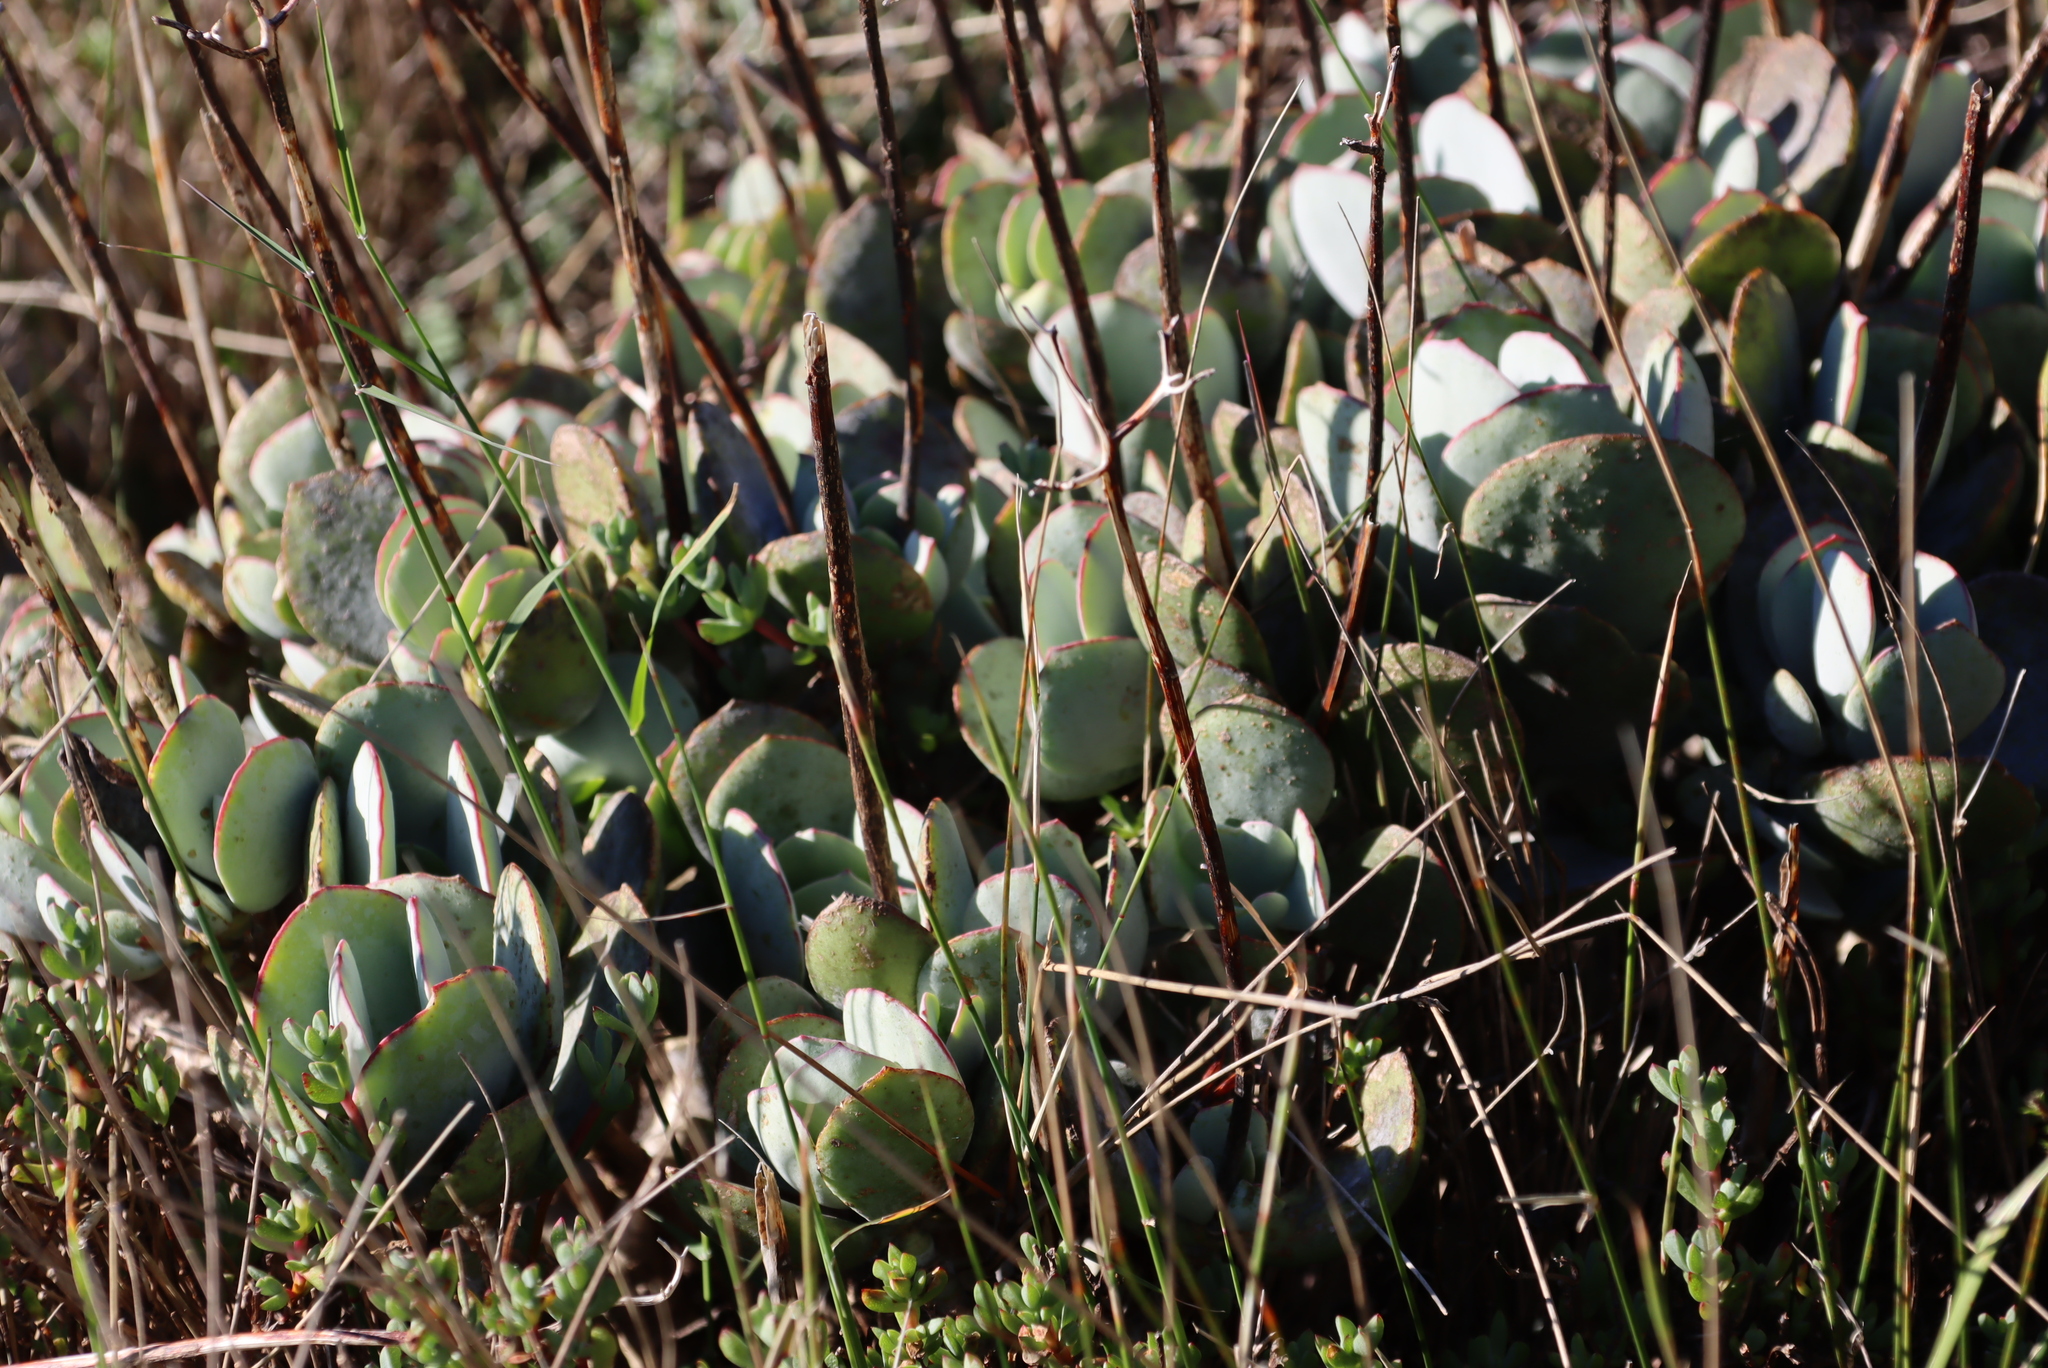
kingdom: Plantae
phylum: Tracheophyta
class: Magnoliopsida
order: Saxifragales
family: Crassulaceae
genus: Cotyledon
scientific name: Cotyledon orbiculata
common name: Pig's ear
